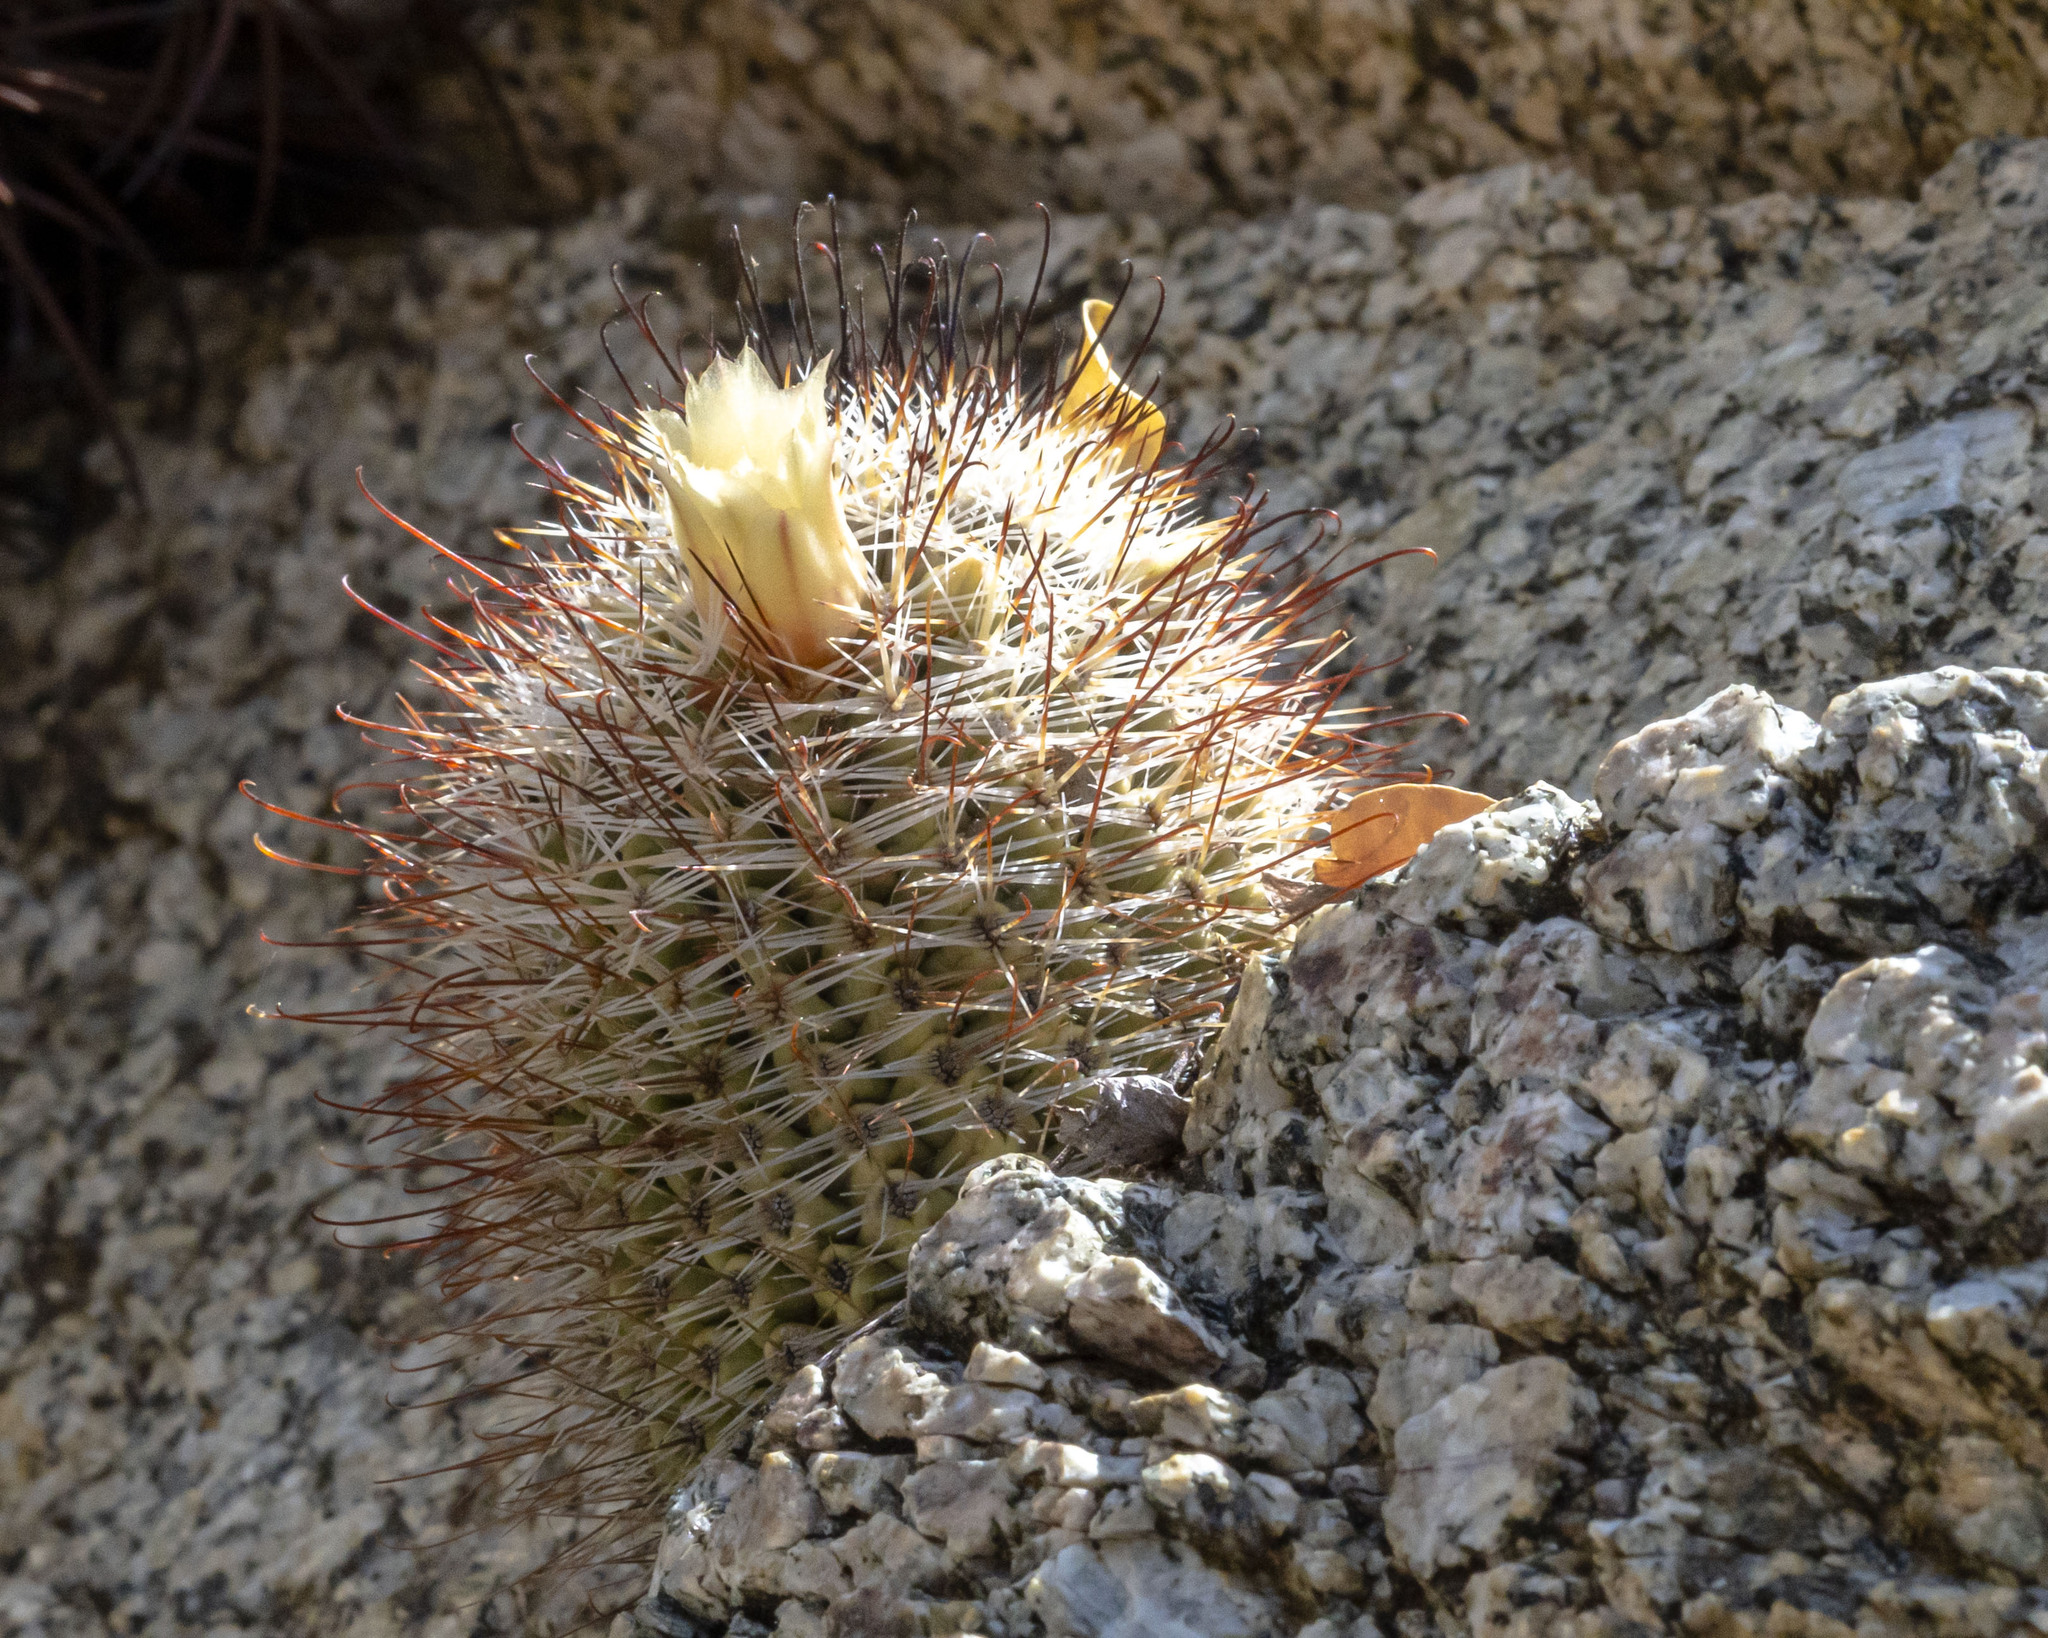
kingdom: Plantae
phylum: Tracheophyta
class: Magnoliopsida
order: Caryophyllales
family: Cactaceae
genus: Cochemiea
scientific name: Cochemiea armillata
